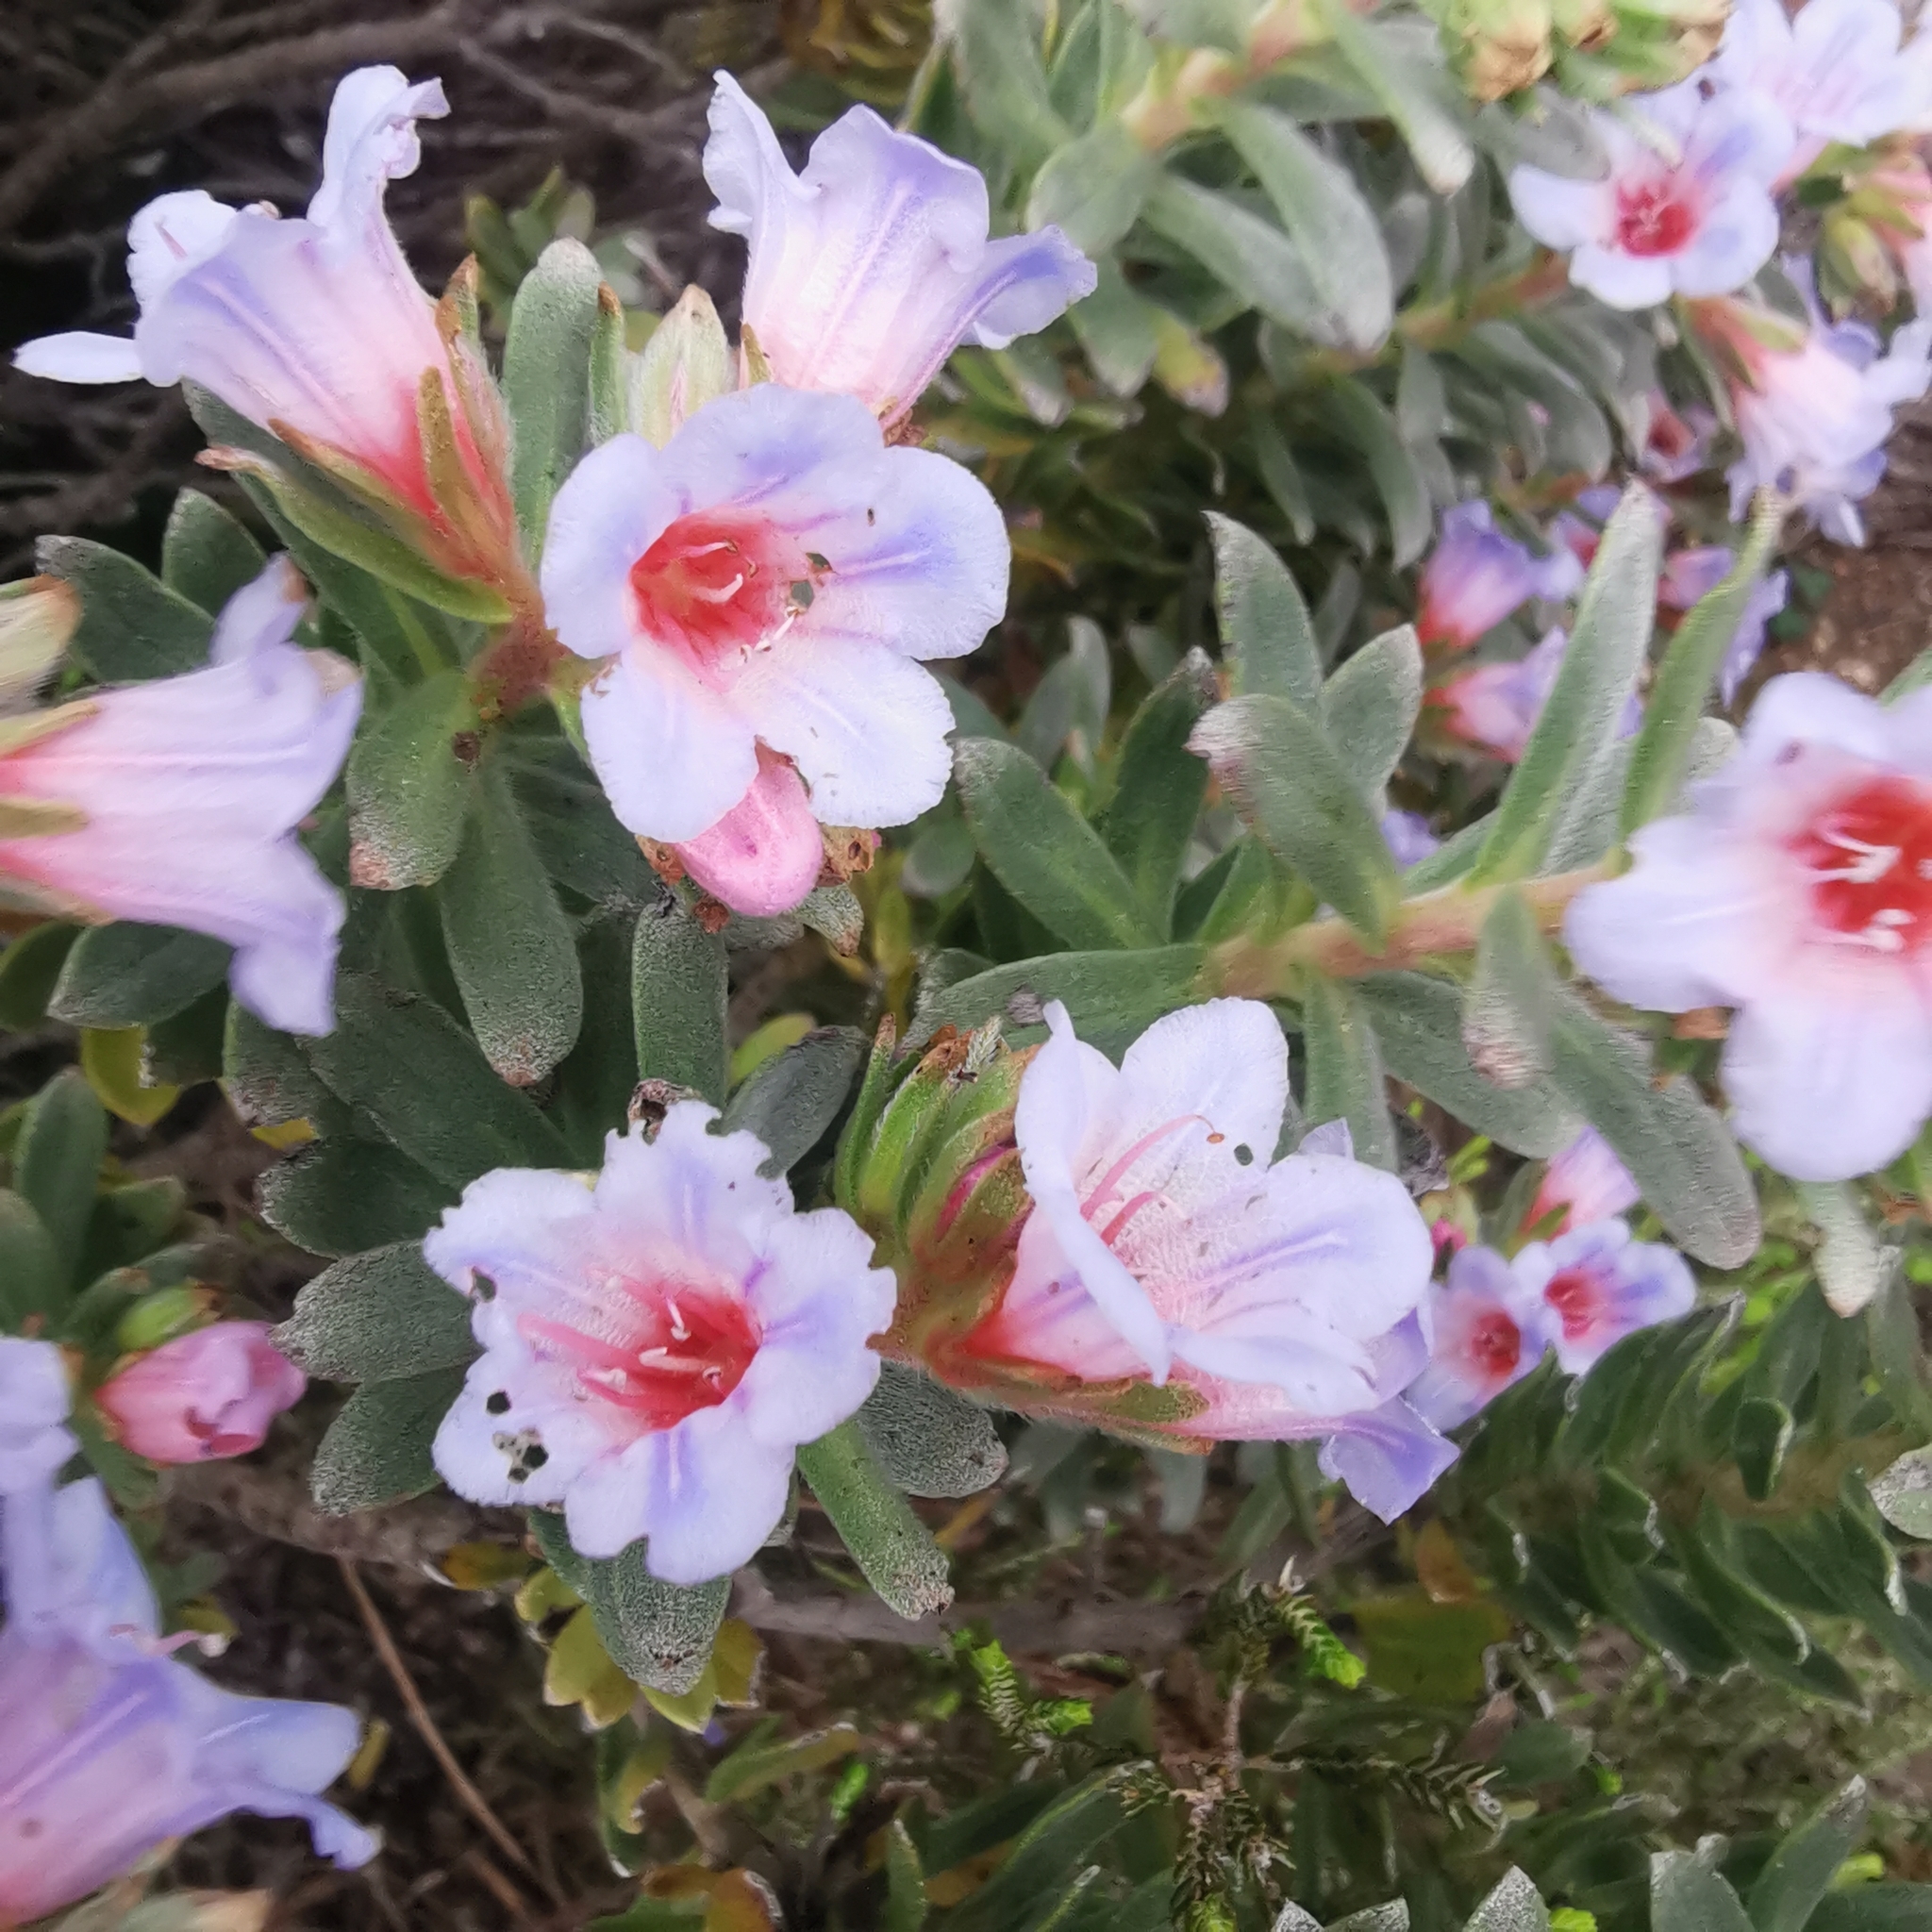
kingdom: Plantae
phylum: Tracheophyta
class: Magnoliopsida
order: Boraginales
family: Boraginaceae
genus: Lobostemon
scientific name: Lobostemon fruticosus
